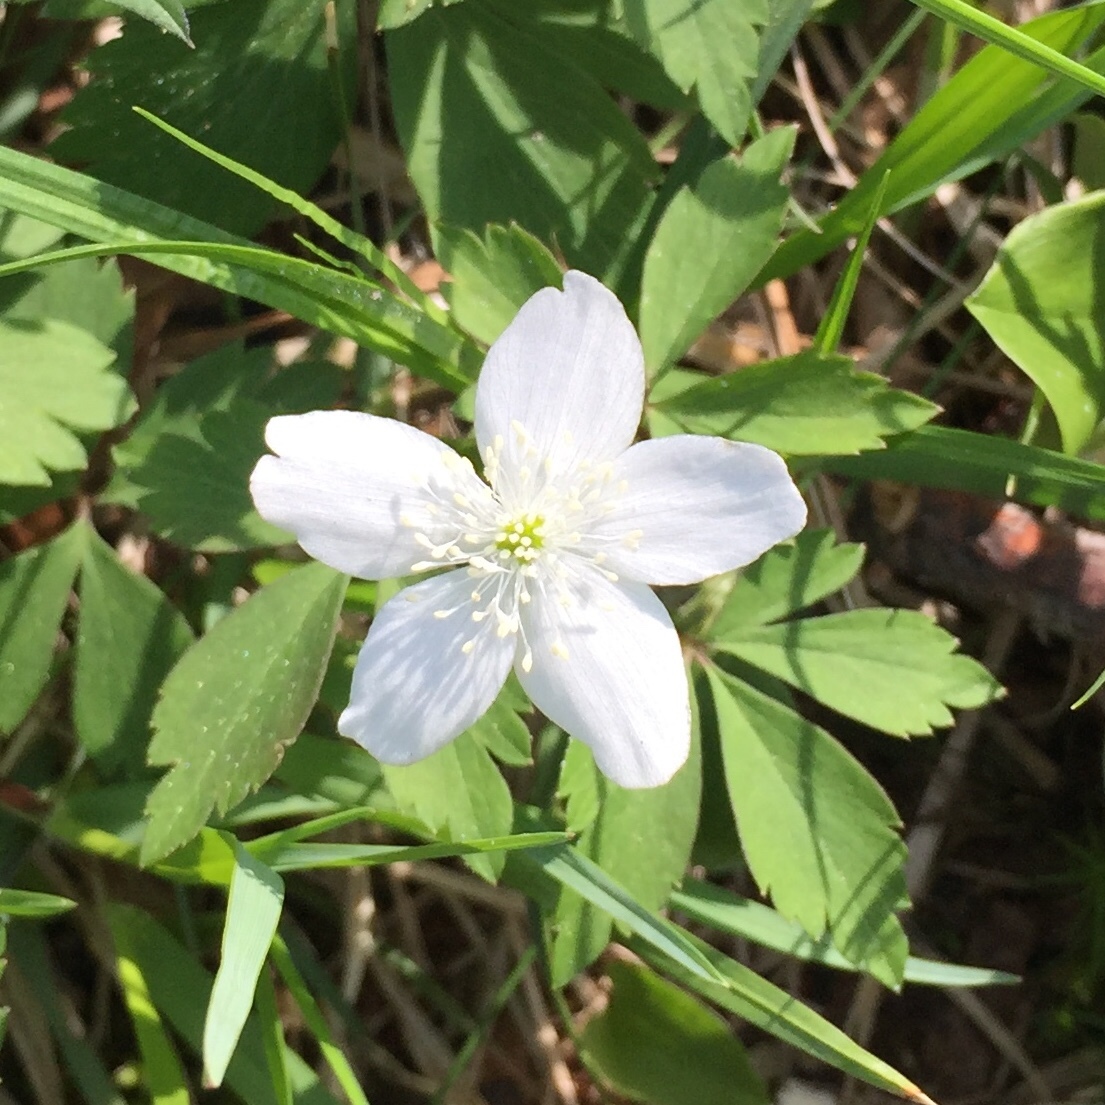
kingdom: Plantae
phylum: Tracheophyta
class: Magnoliopsida
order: Ranunculales
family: Ranunculaceae
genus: Anemone
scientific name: Anemone quinquefolia
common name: Wood anemone
